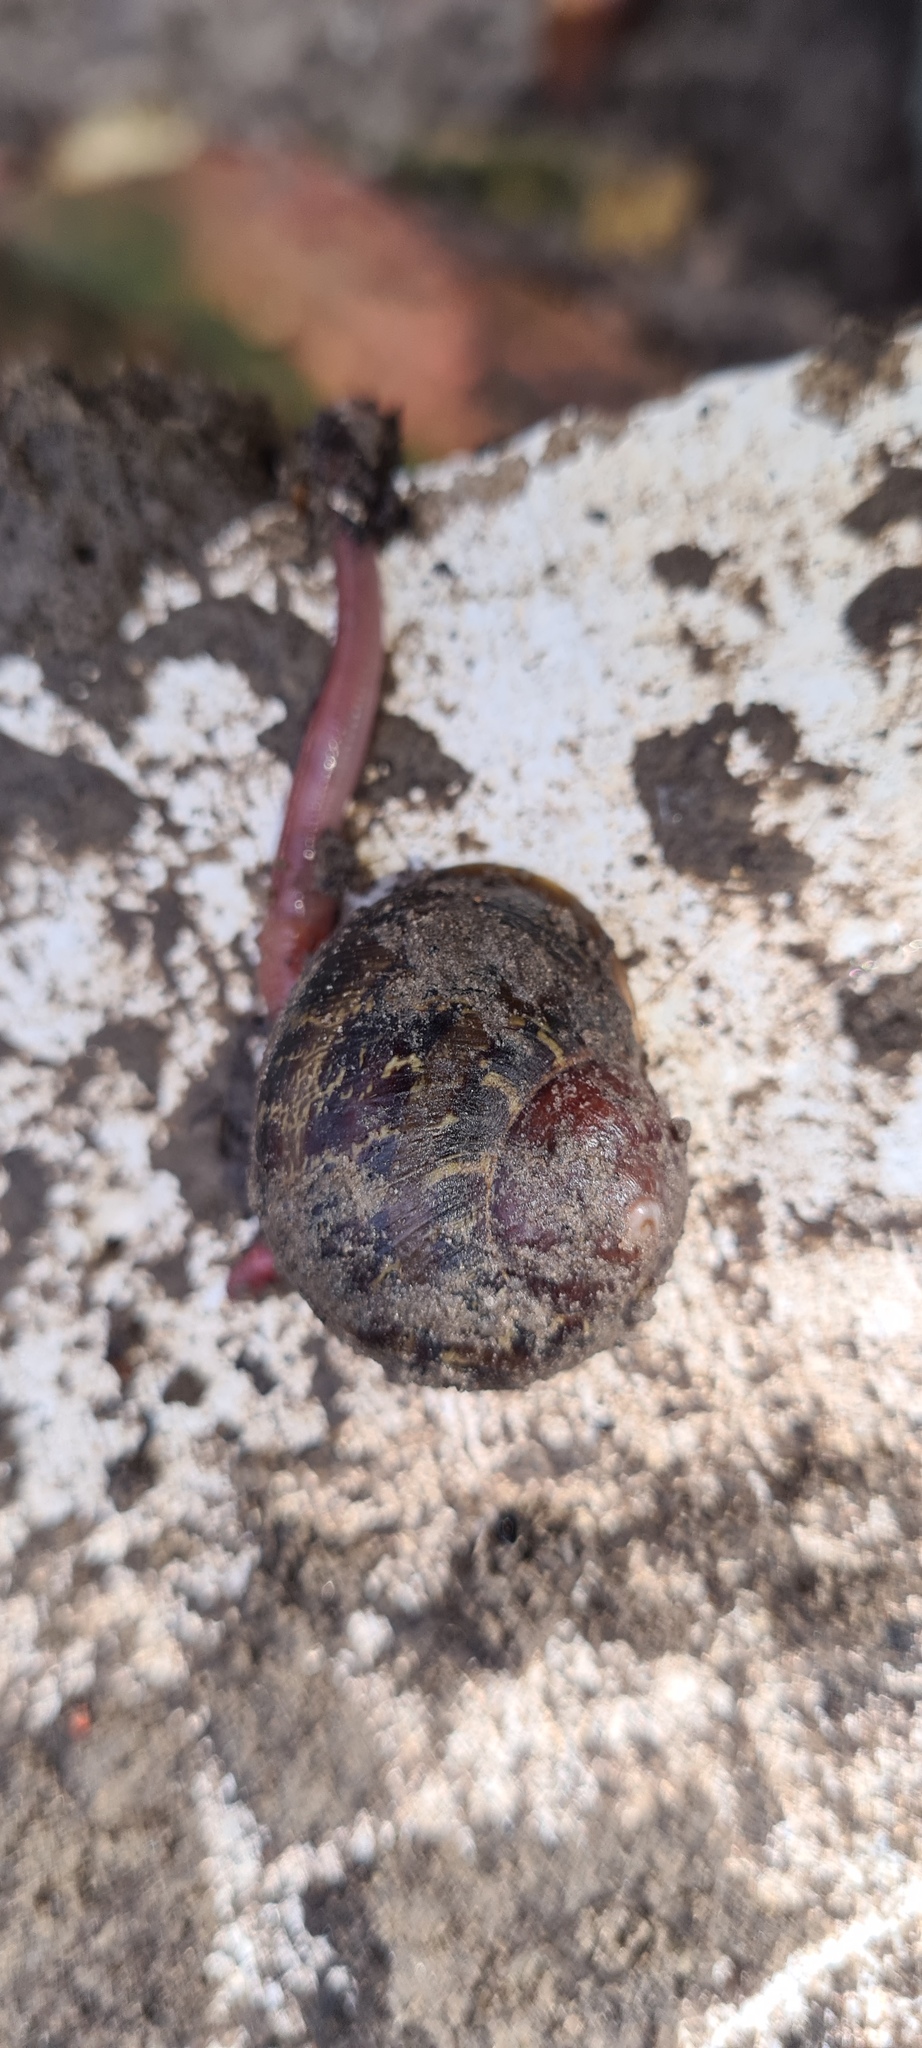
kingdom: Animalia
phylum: Mollusca
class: Gastropoda
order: Stylommatophora
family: Helicidae
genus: Cornu
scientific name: Cornu aspersum
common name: Brown garden snail
